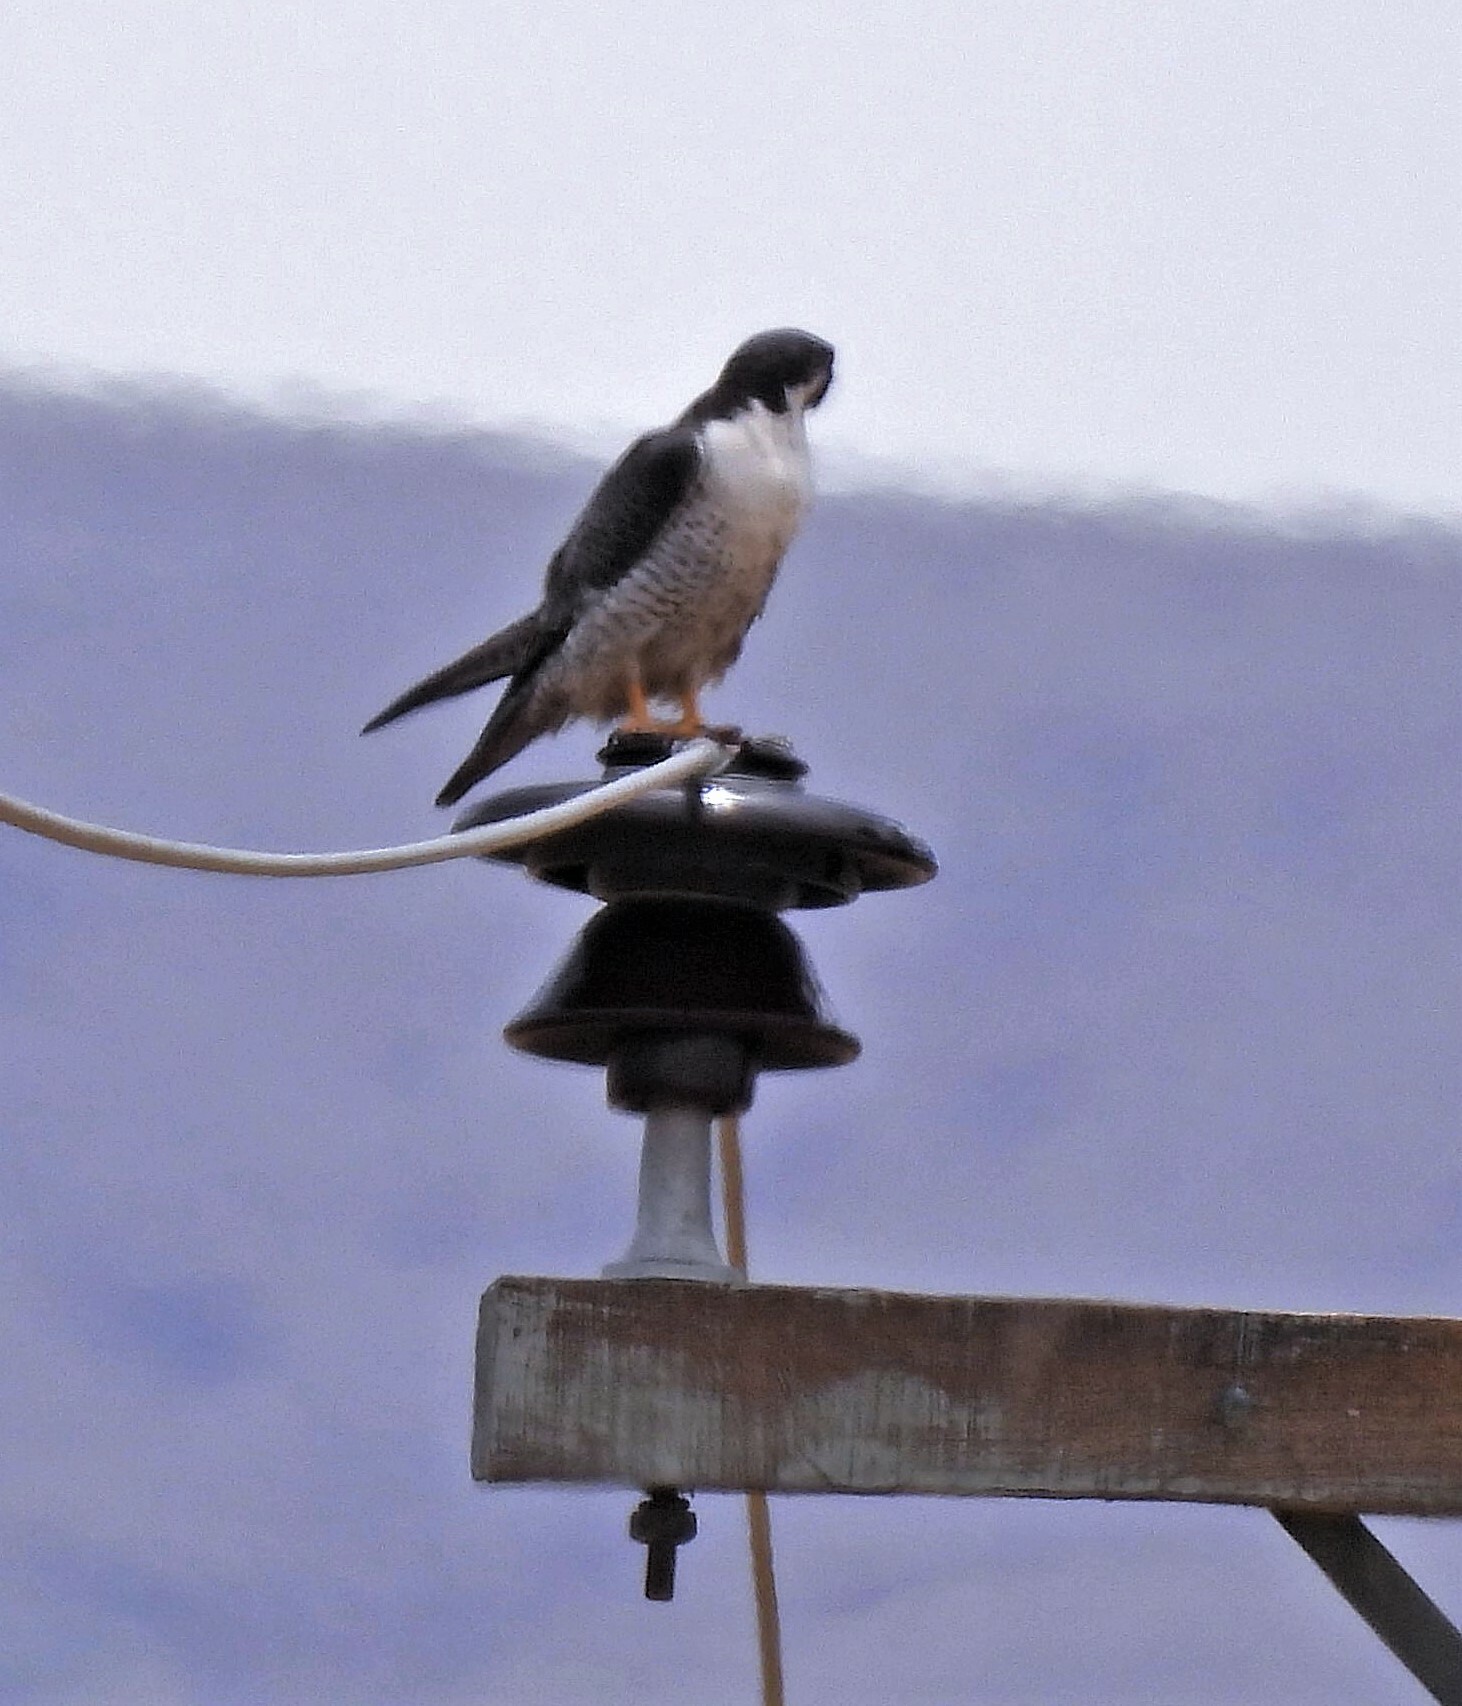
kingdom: Animalia
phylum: Chordata
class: Aves
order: Falconiformes
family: Falconidae
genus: Falco
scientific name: Falco peregrinus
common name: Peregrine falcon
